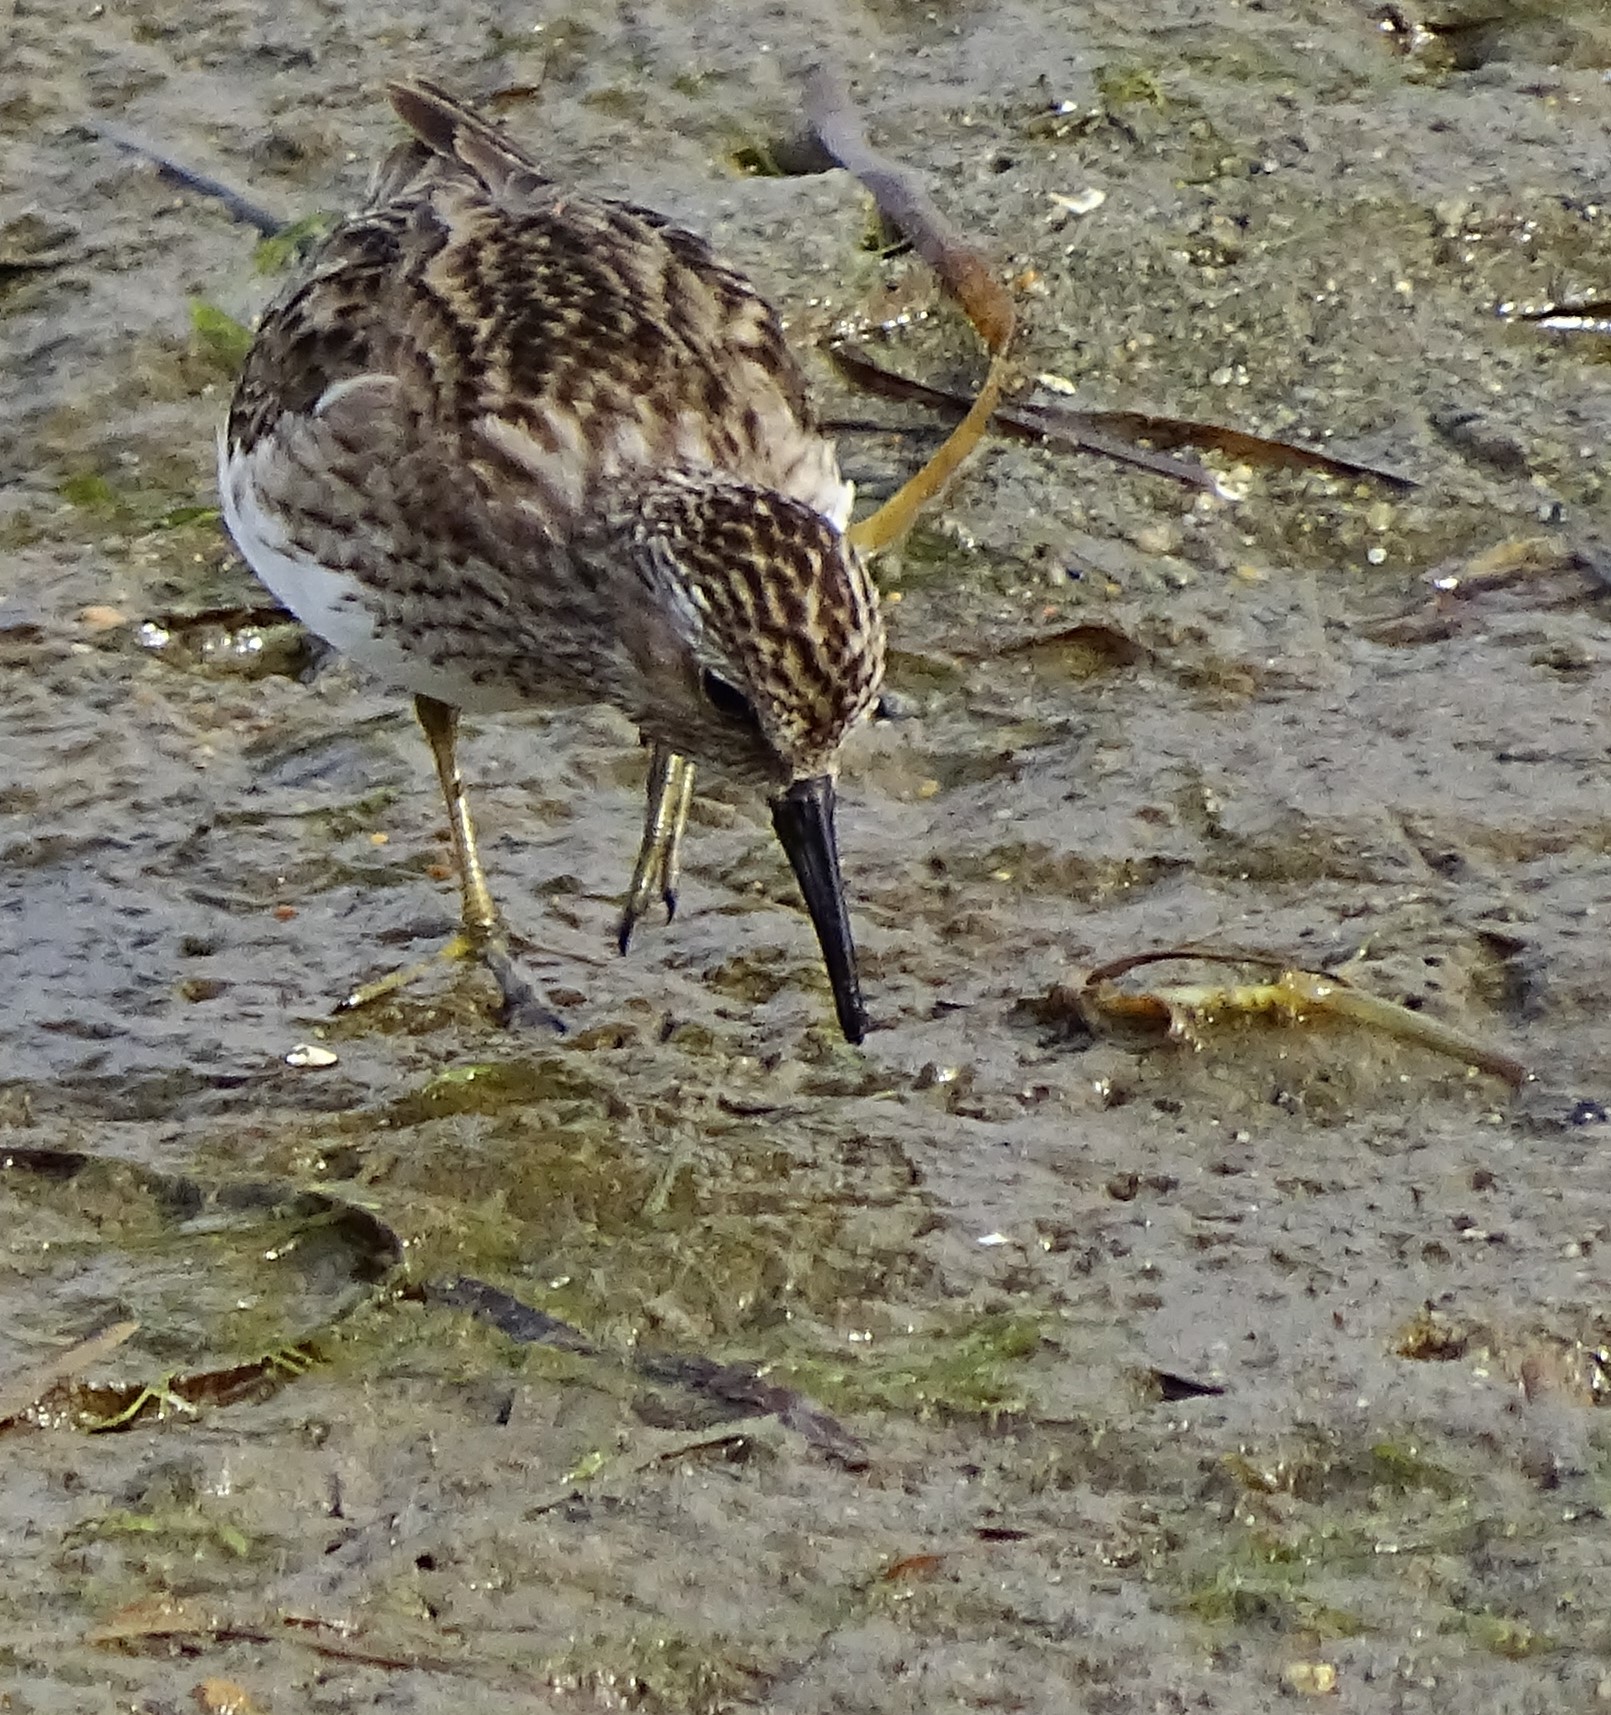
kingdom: Animalia
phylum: Chordata
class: Aves
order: Charadriiformes
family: Scolopacidae
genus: Calidris
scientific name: Calidris minutilla
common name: Least sandpiper
